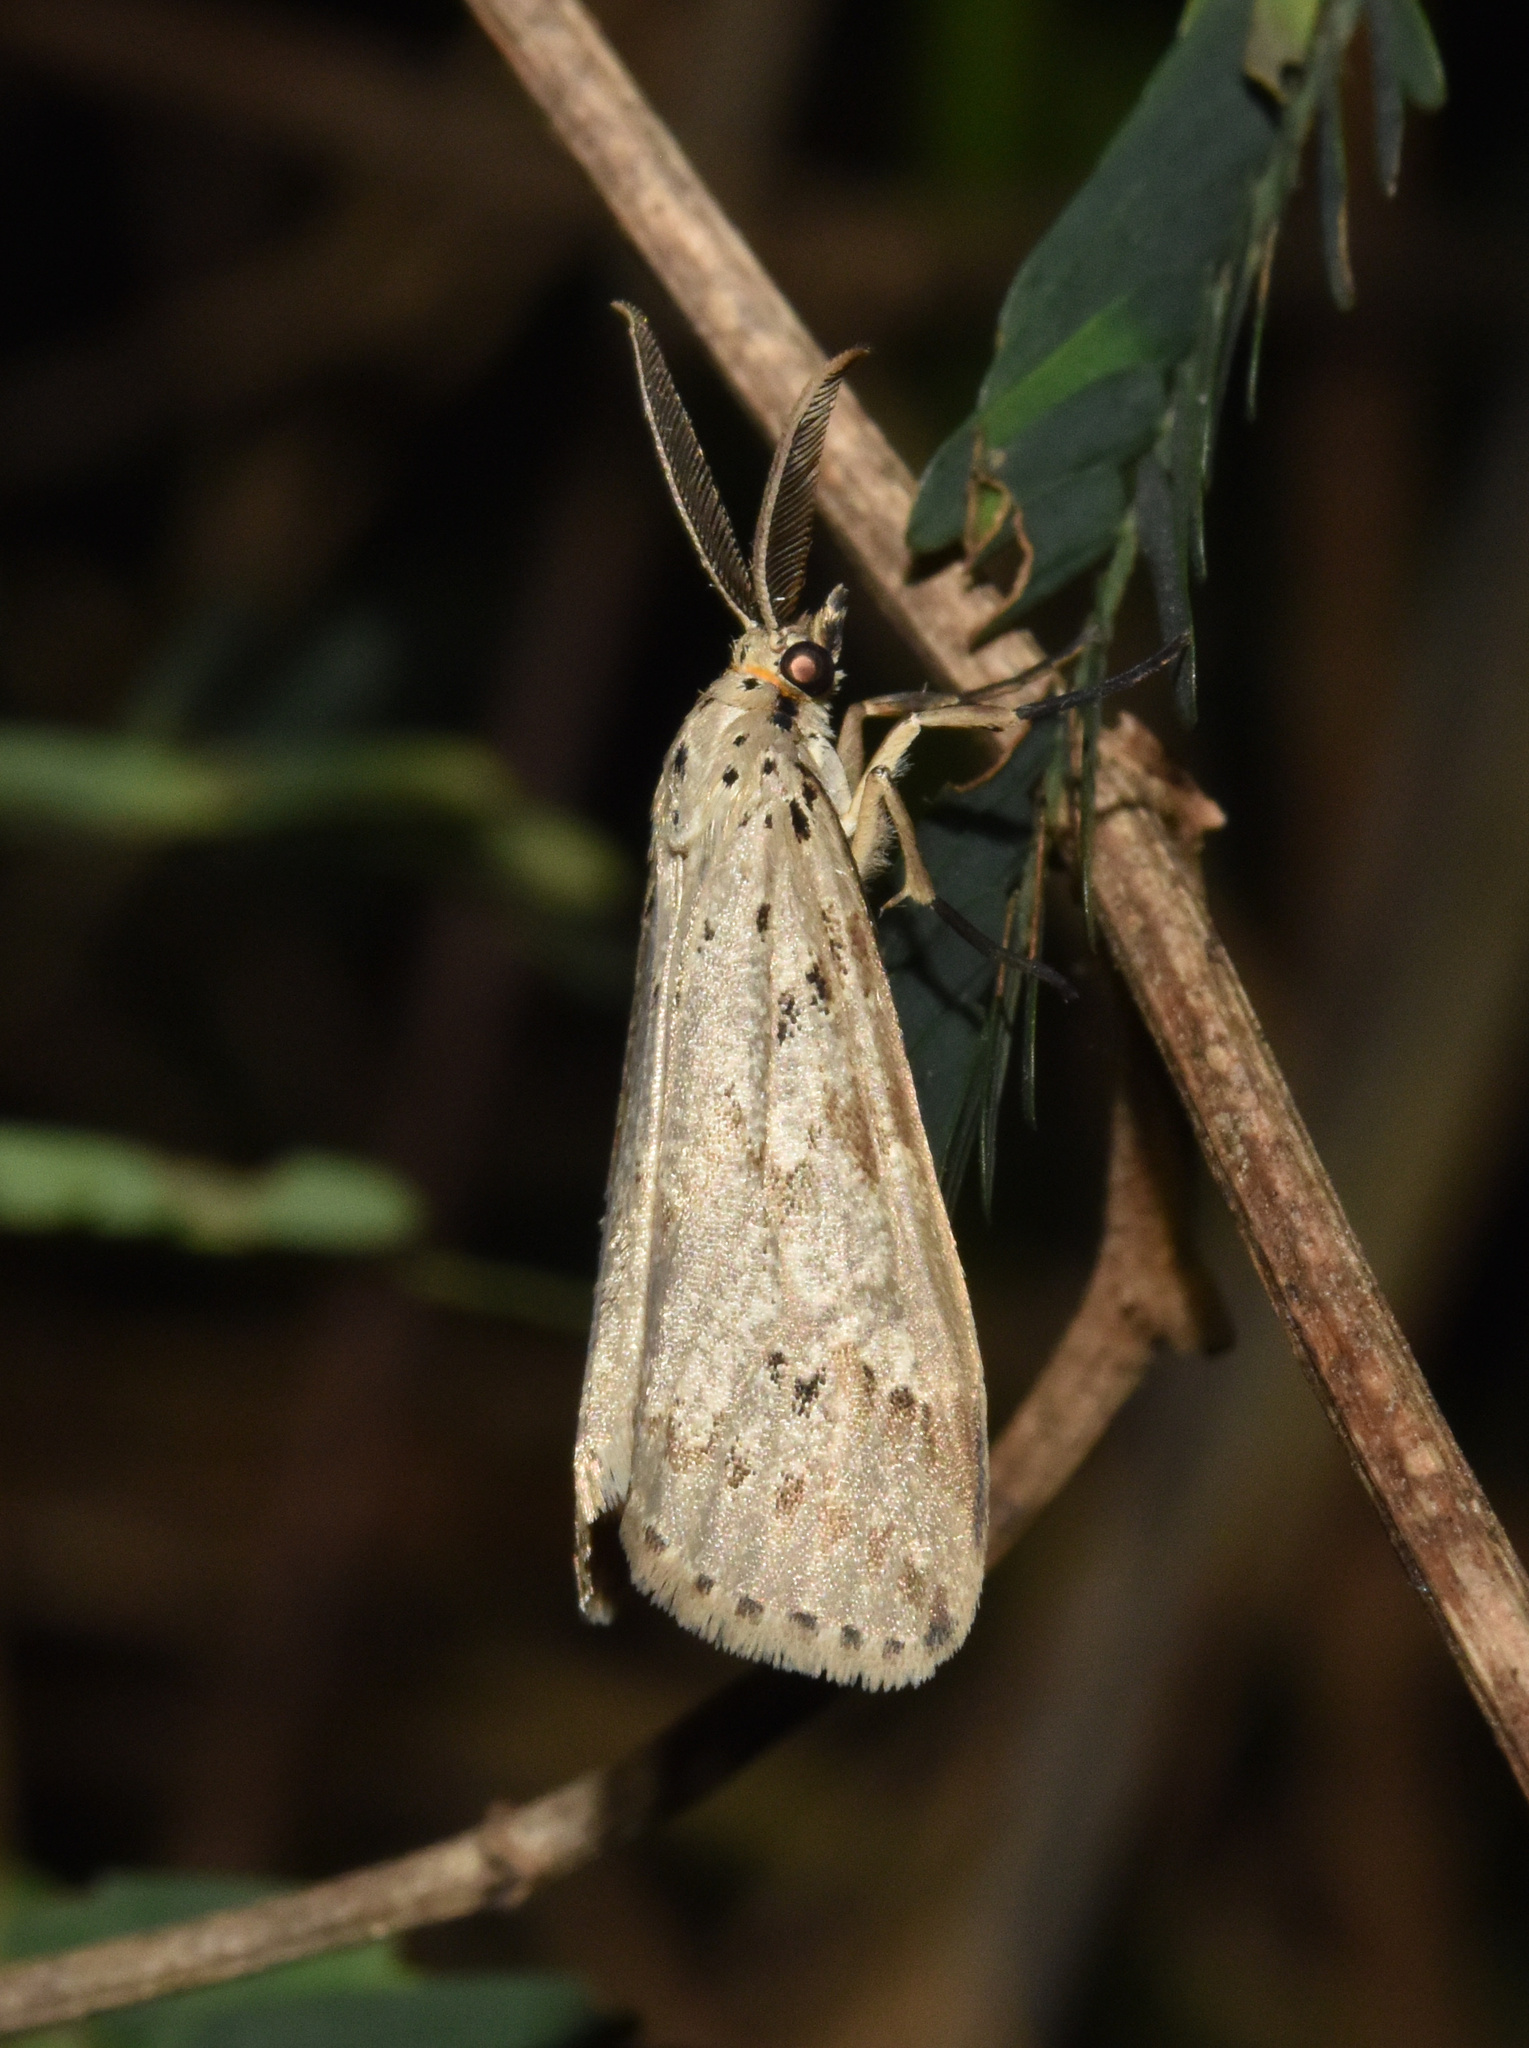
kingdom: Animalia
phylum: Arthropoda
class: Insecta
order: Lepidoptera
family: Erebidae
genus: Galtara
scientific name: Galtara rostrata
